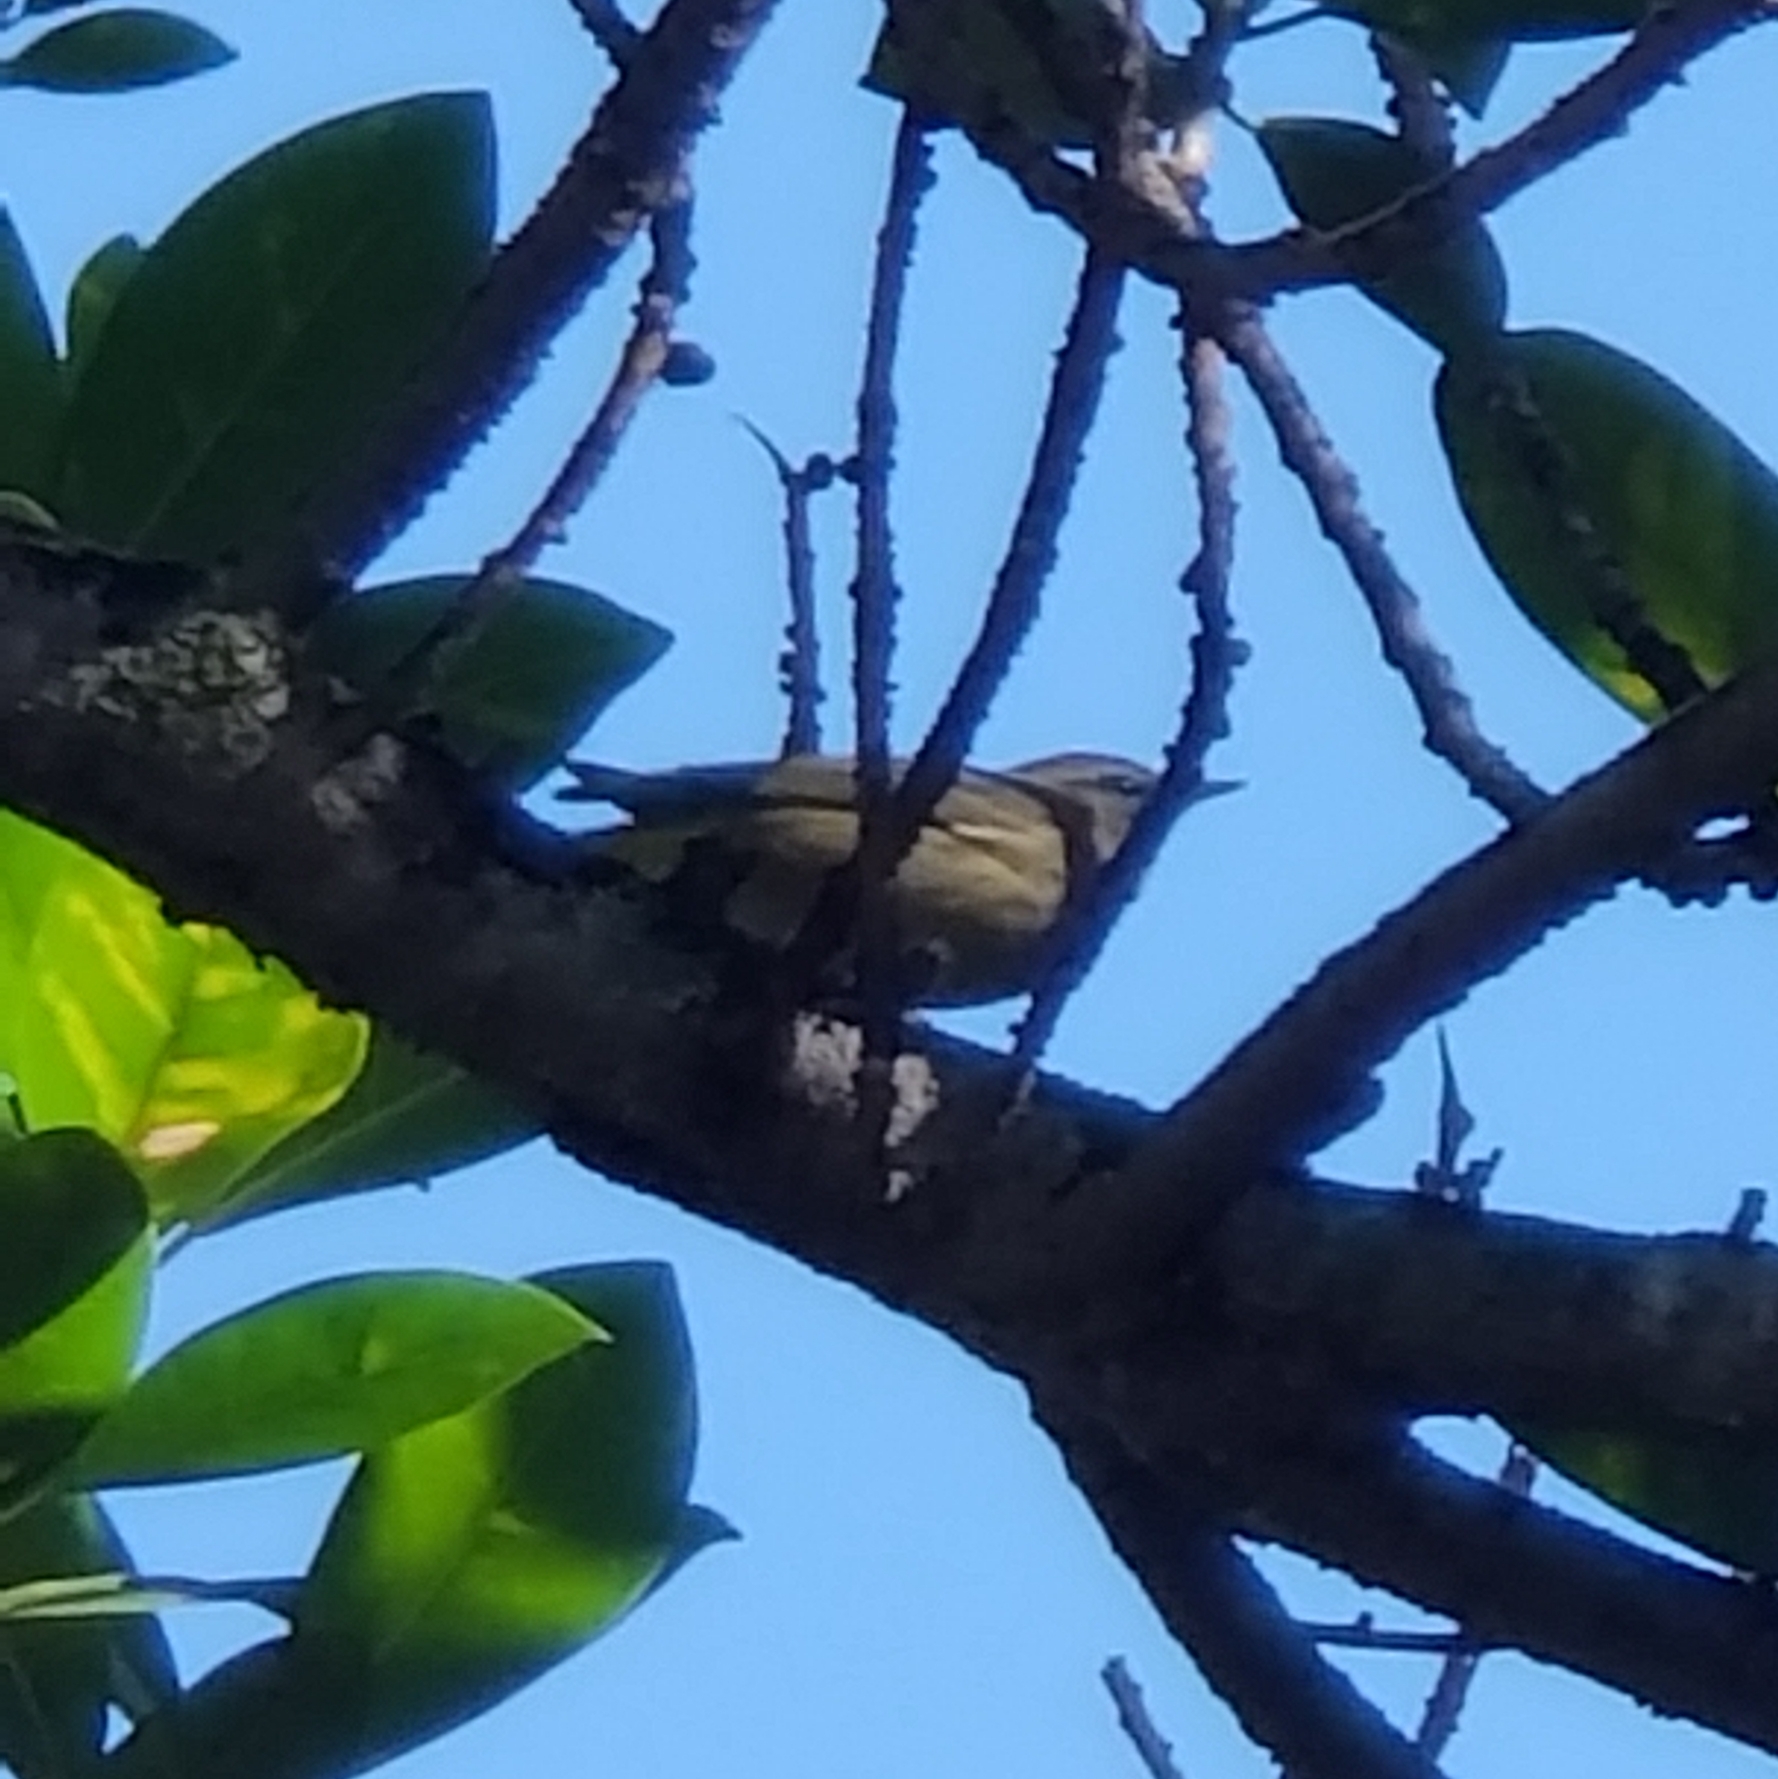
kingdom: Animalia
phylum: Chordata
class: Aves
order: Passeriformes
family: Parulidae
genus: Setophaga
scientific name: Setophaga palmarum
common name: Palm warbler
